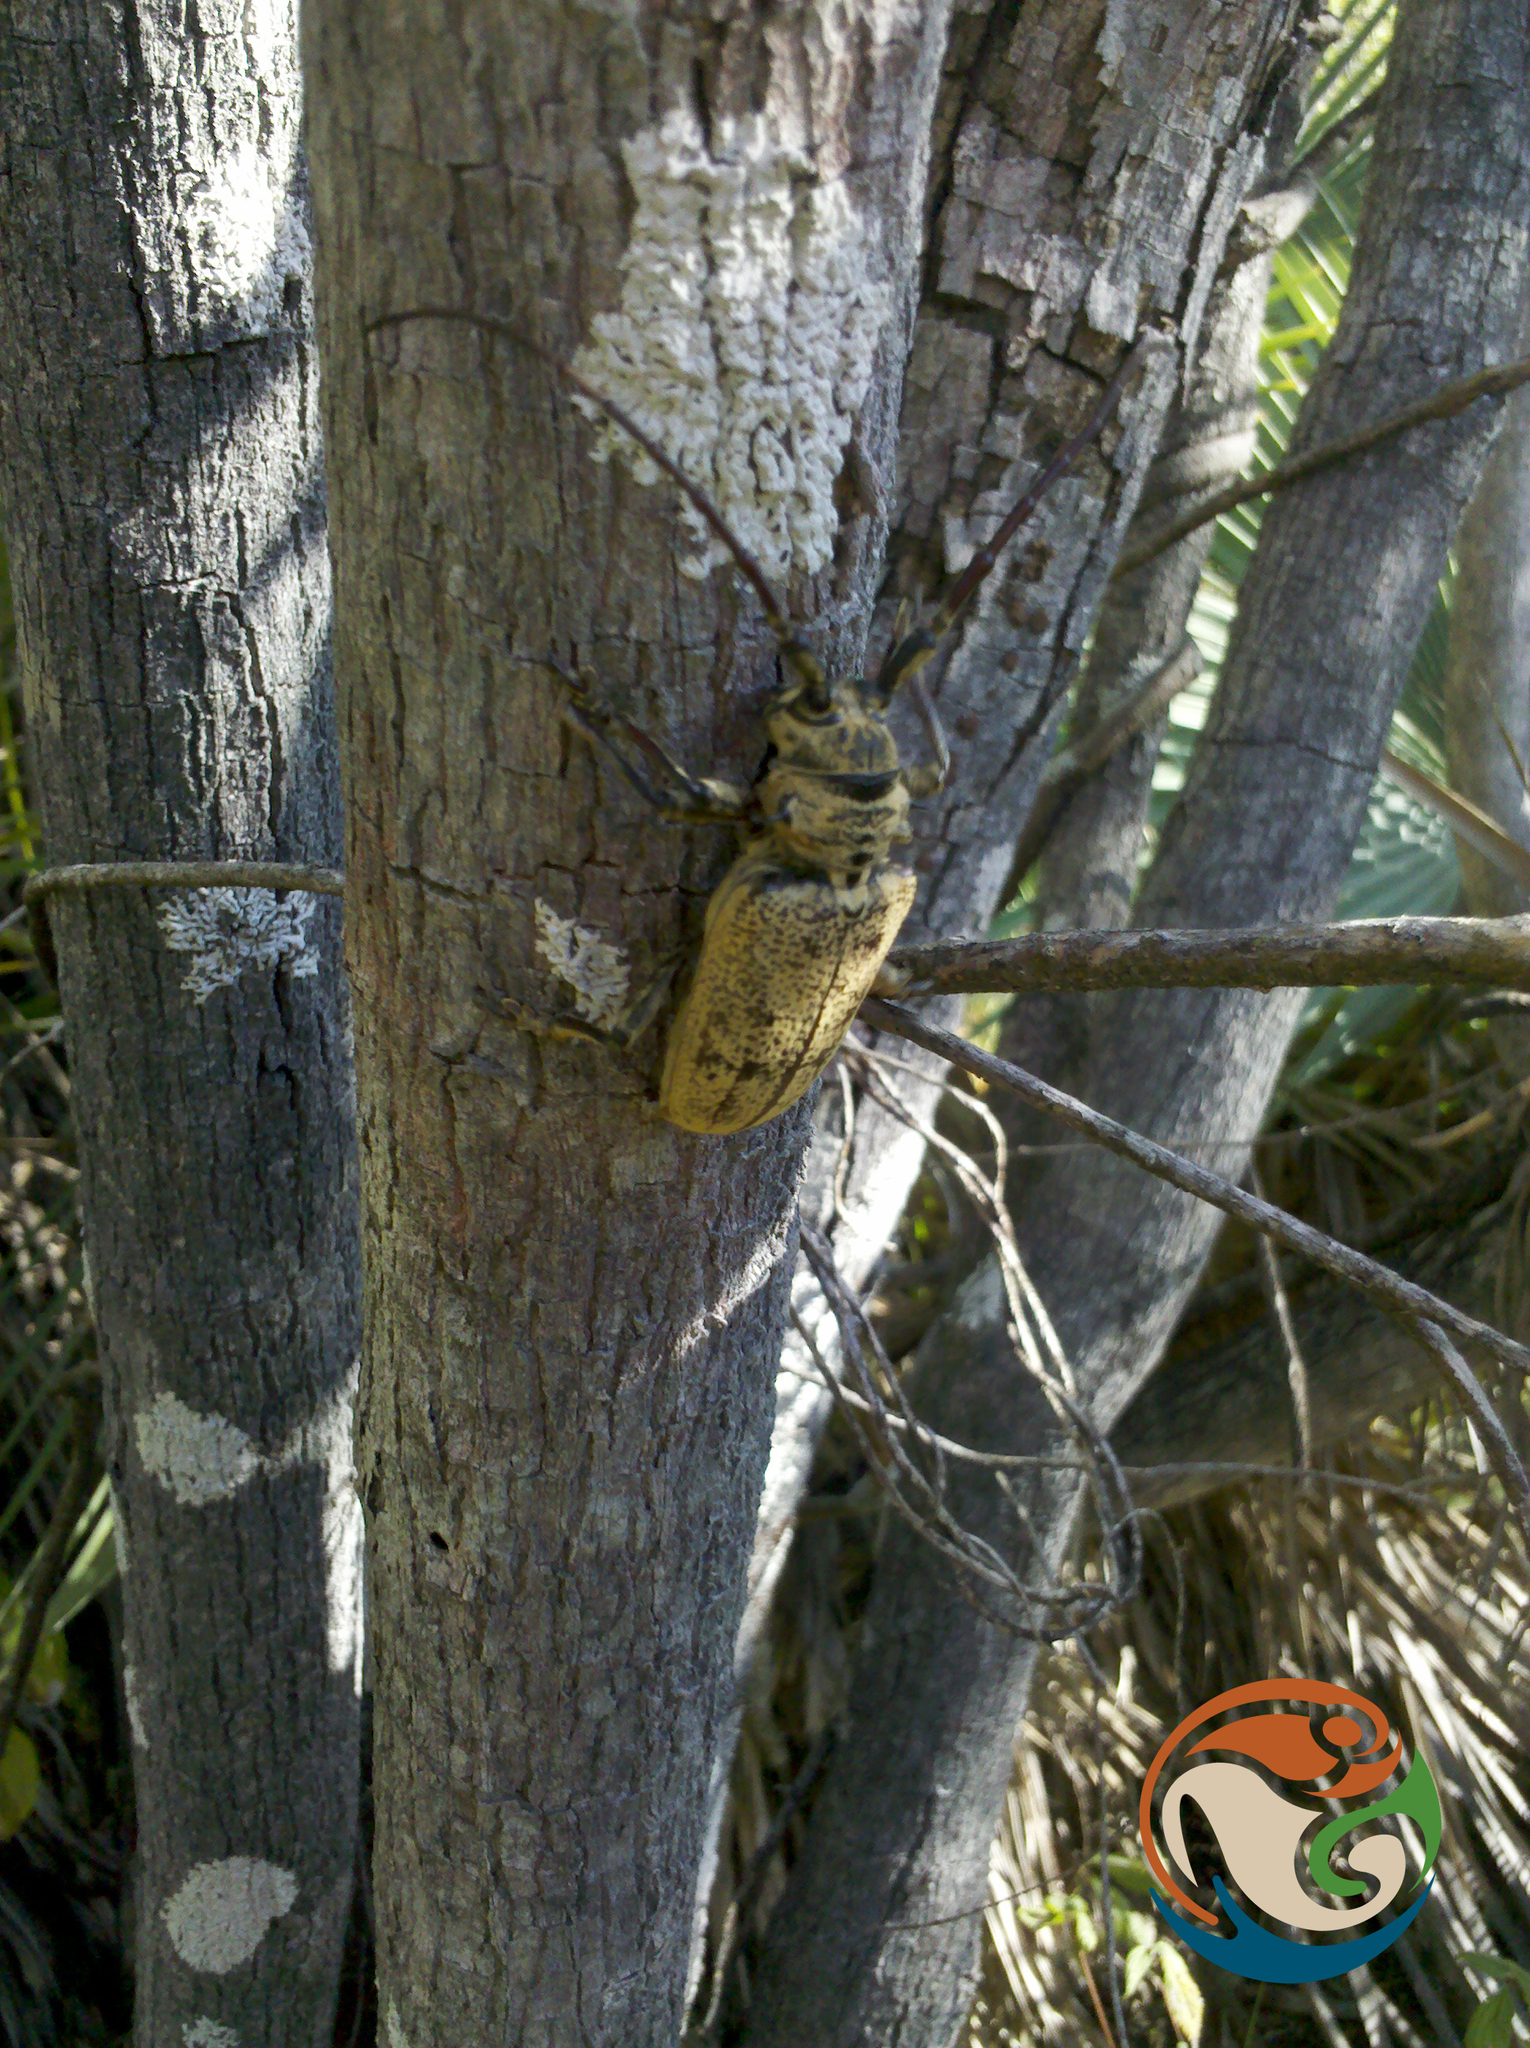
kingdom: Animalia
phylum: Arthropoda
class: Insecta
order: Coleoptera
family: Cerambycidae
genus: Mimolochus
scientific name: Mimolochus hoefneri
